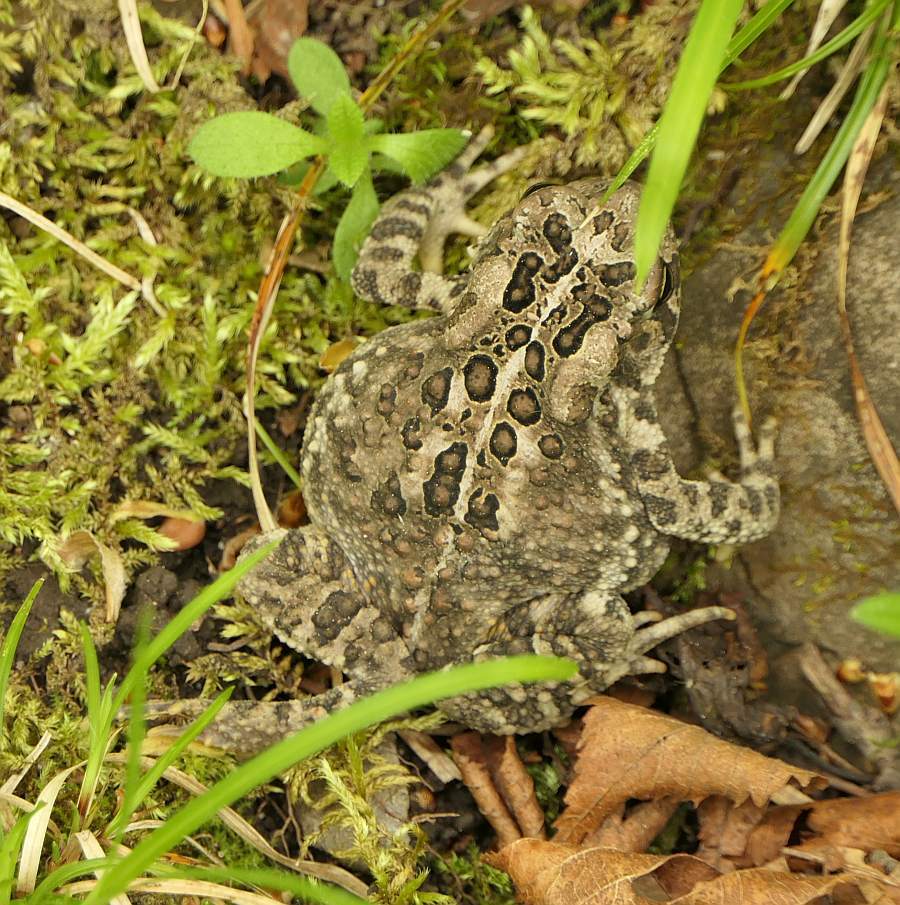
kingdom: Animalia
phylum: Chordata
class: Amphibia
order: Anura
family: Bufonidae
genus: Anaxyrus
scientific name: Anaxyrus americanus
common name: American toad
